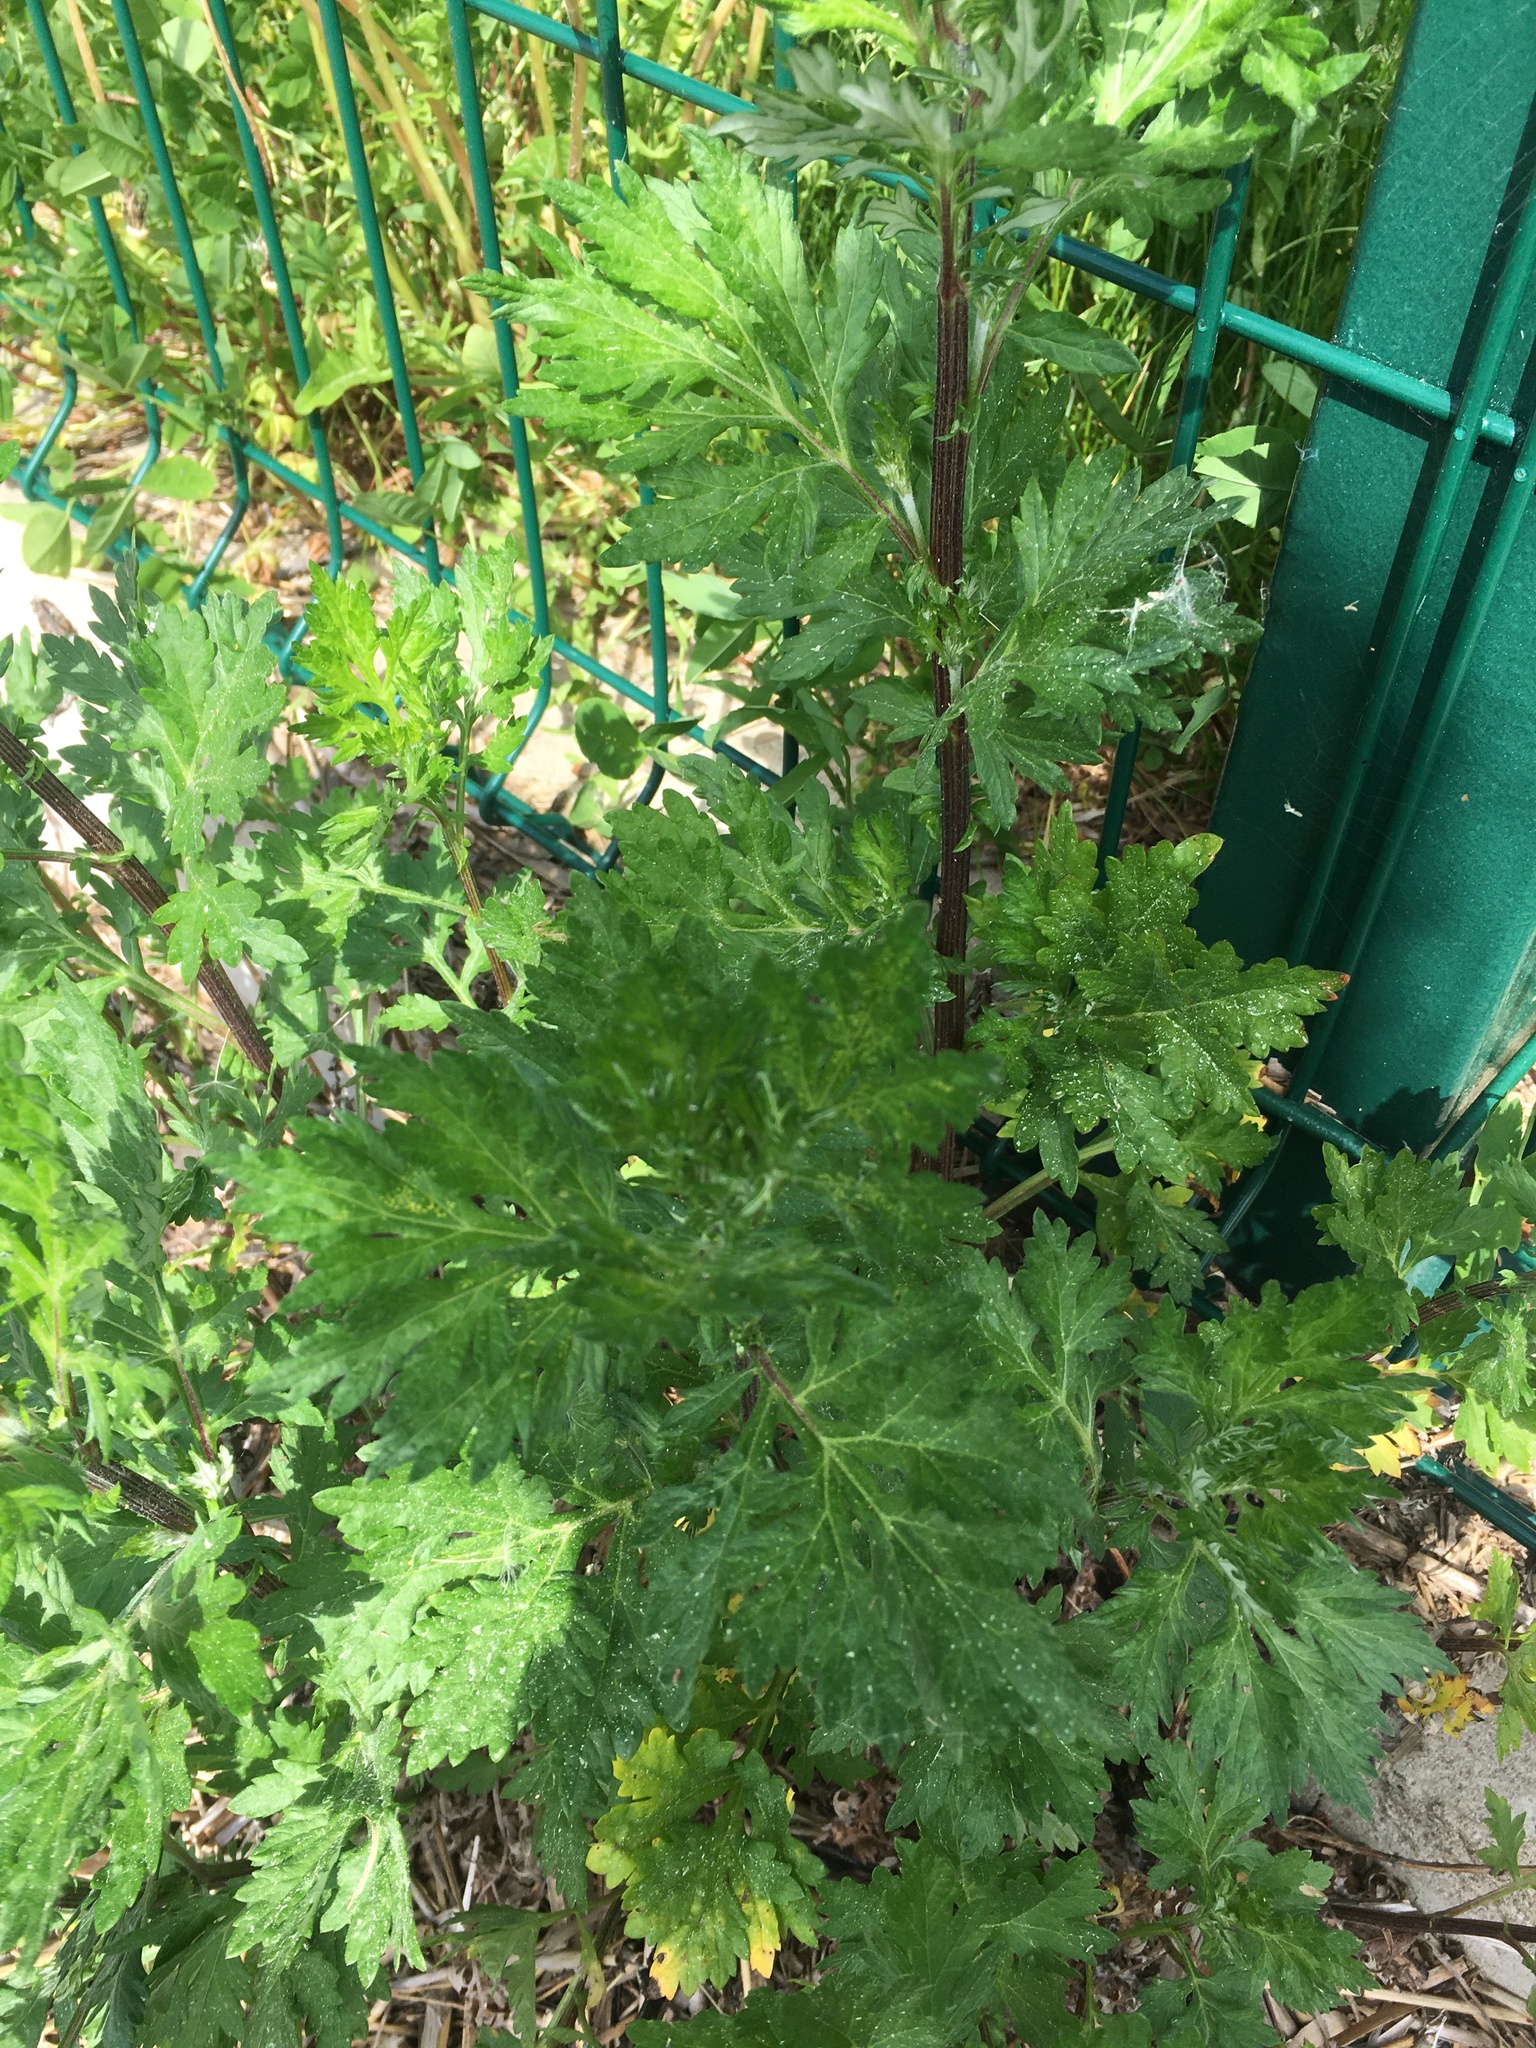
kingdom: Plantae
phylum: Tracheophyta
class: Magnoliopsida
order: Asterales
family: Asteraceae
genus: Artemisia
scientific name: Artemisia vulgaris
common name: Mugwort
